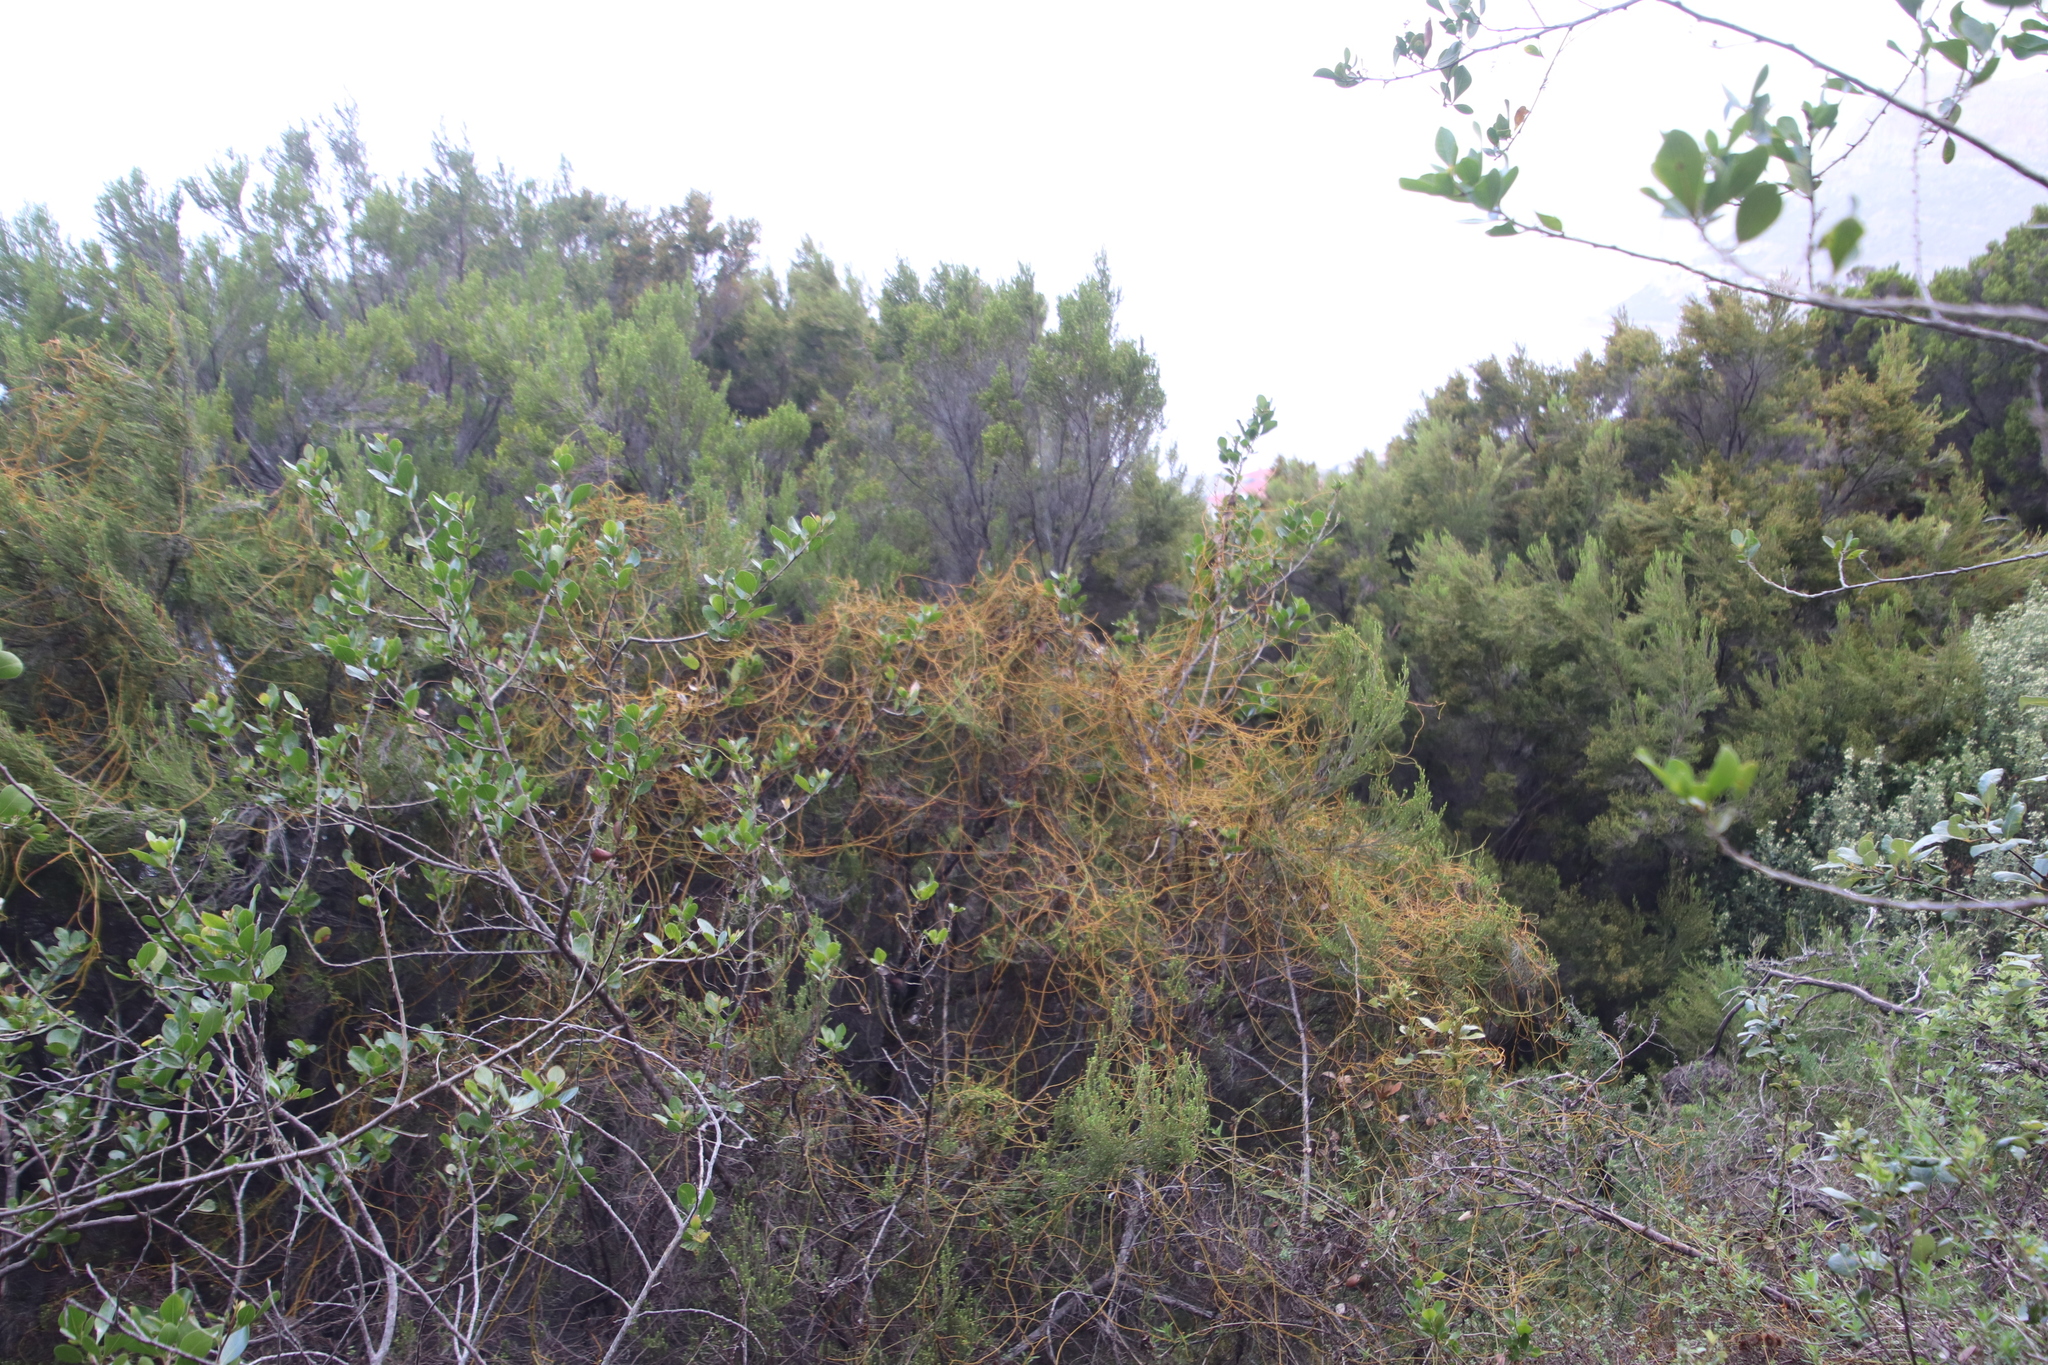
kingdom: Plantae
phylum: Tracheophyta
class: Magnoliopsida
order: Laurales
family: Lauraceae
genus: Cassytha
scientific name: Cassytha ciliolata
